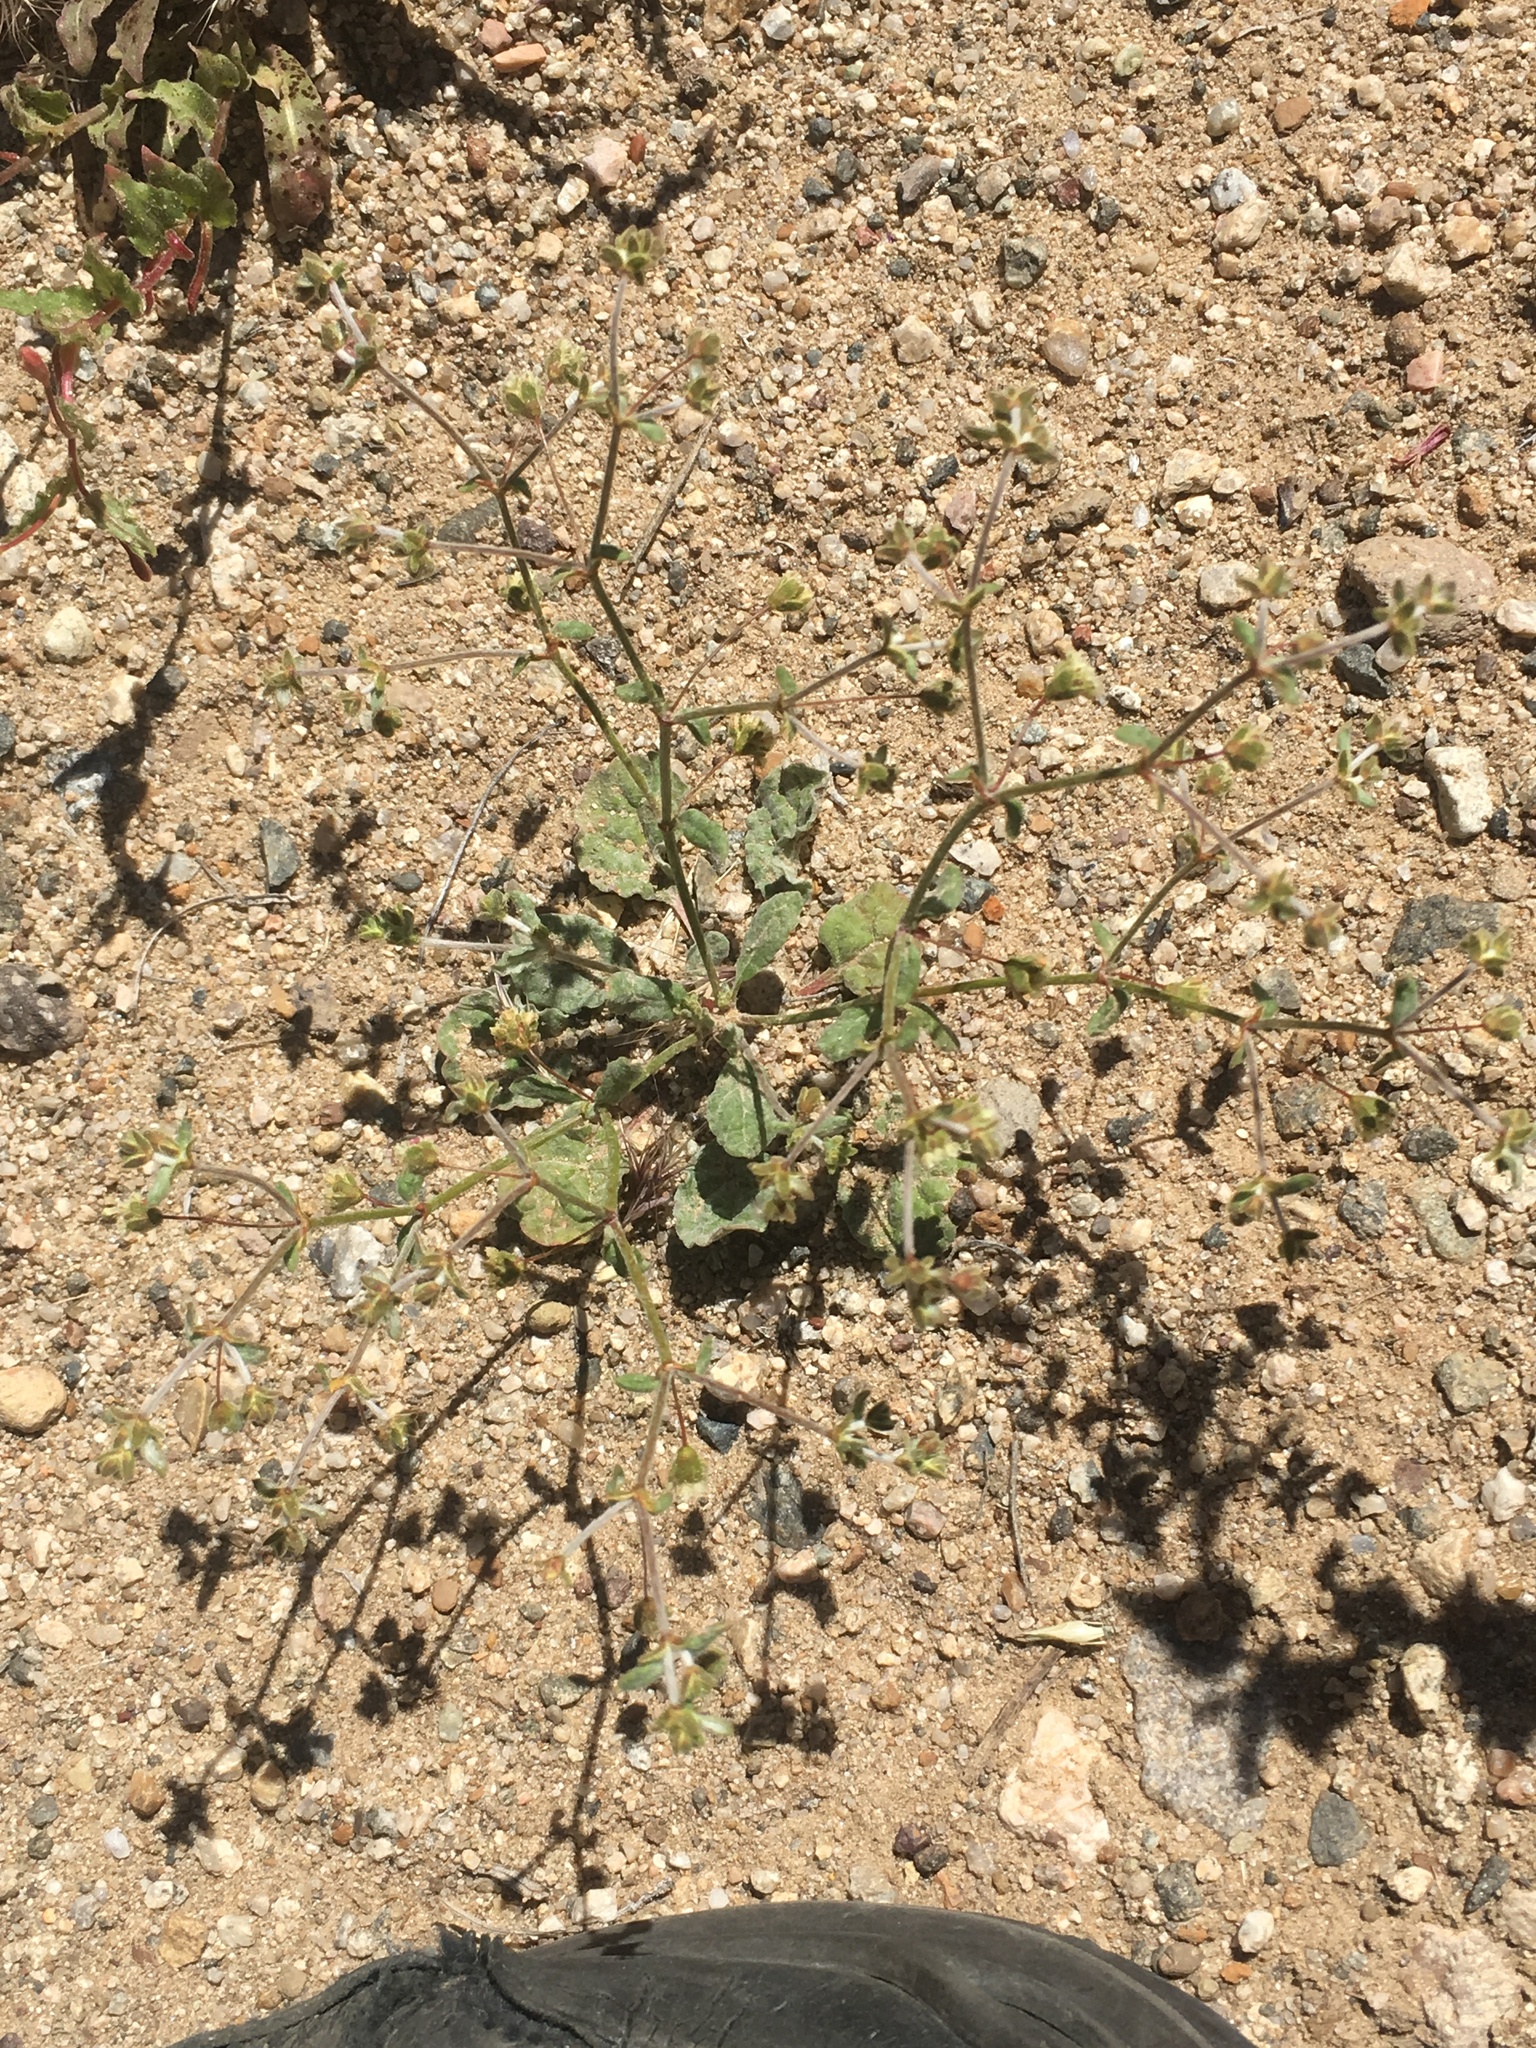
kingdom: Plantae
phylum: Tracheophyta
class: Magnoliopsida
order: Caryophyllales
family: Polygonaceae
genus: Eriogonum
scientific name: Eriogonum viridescens
